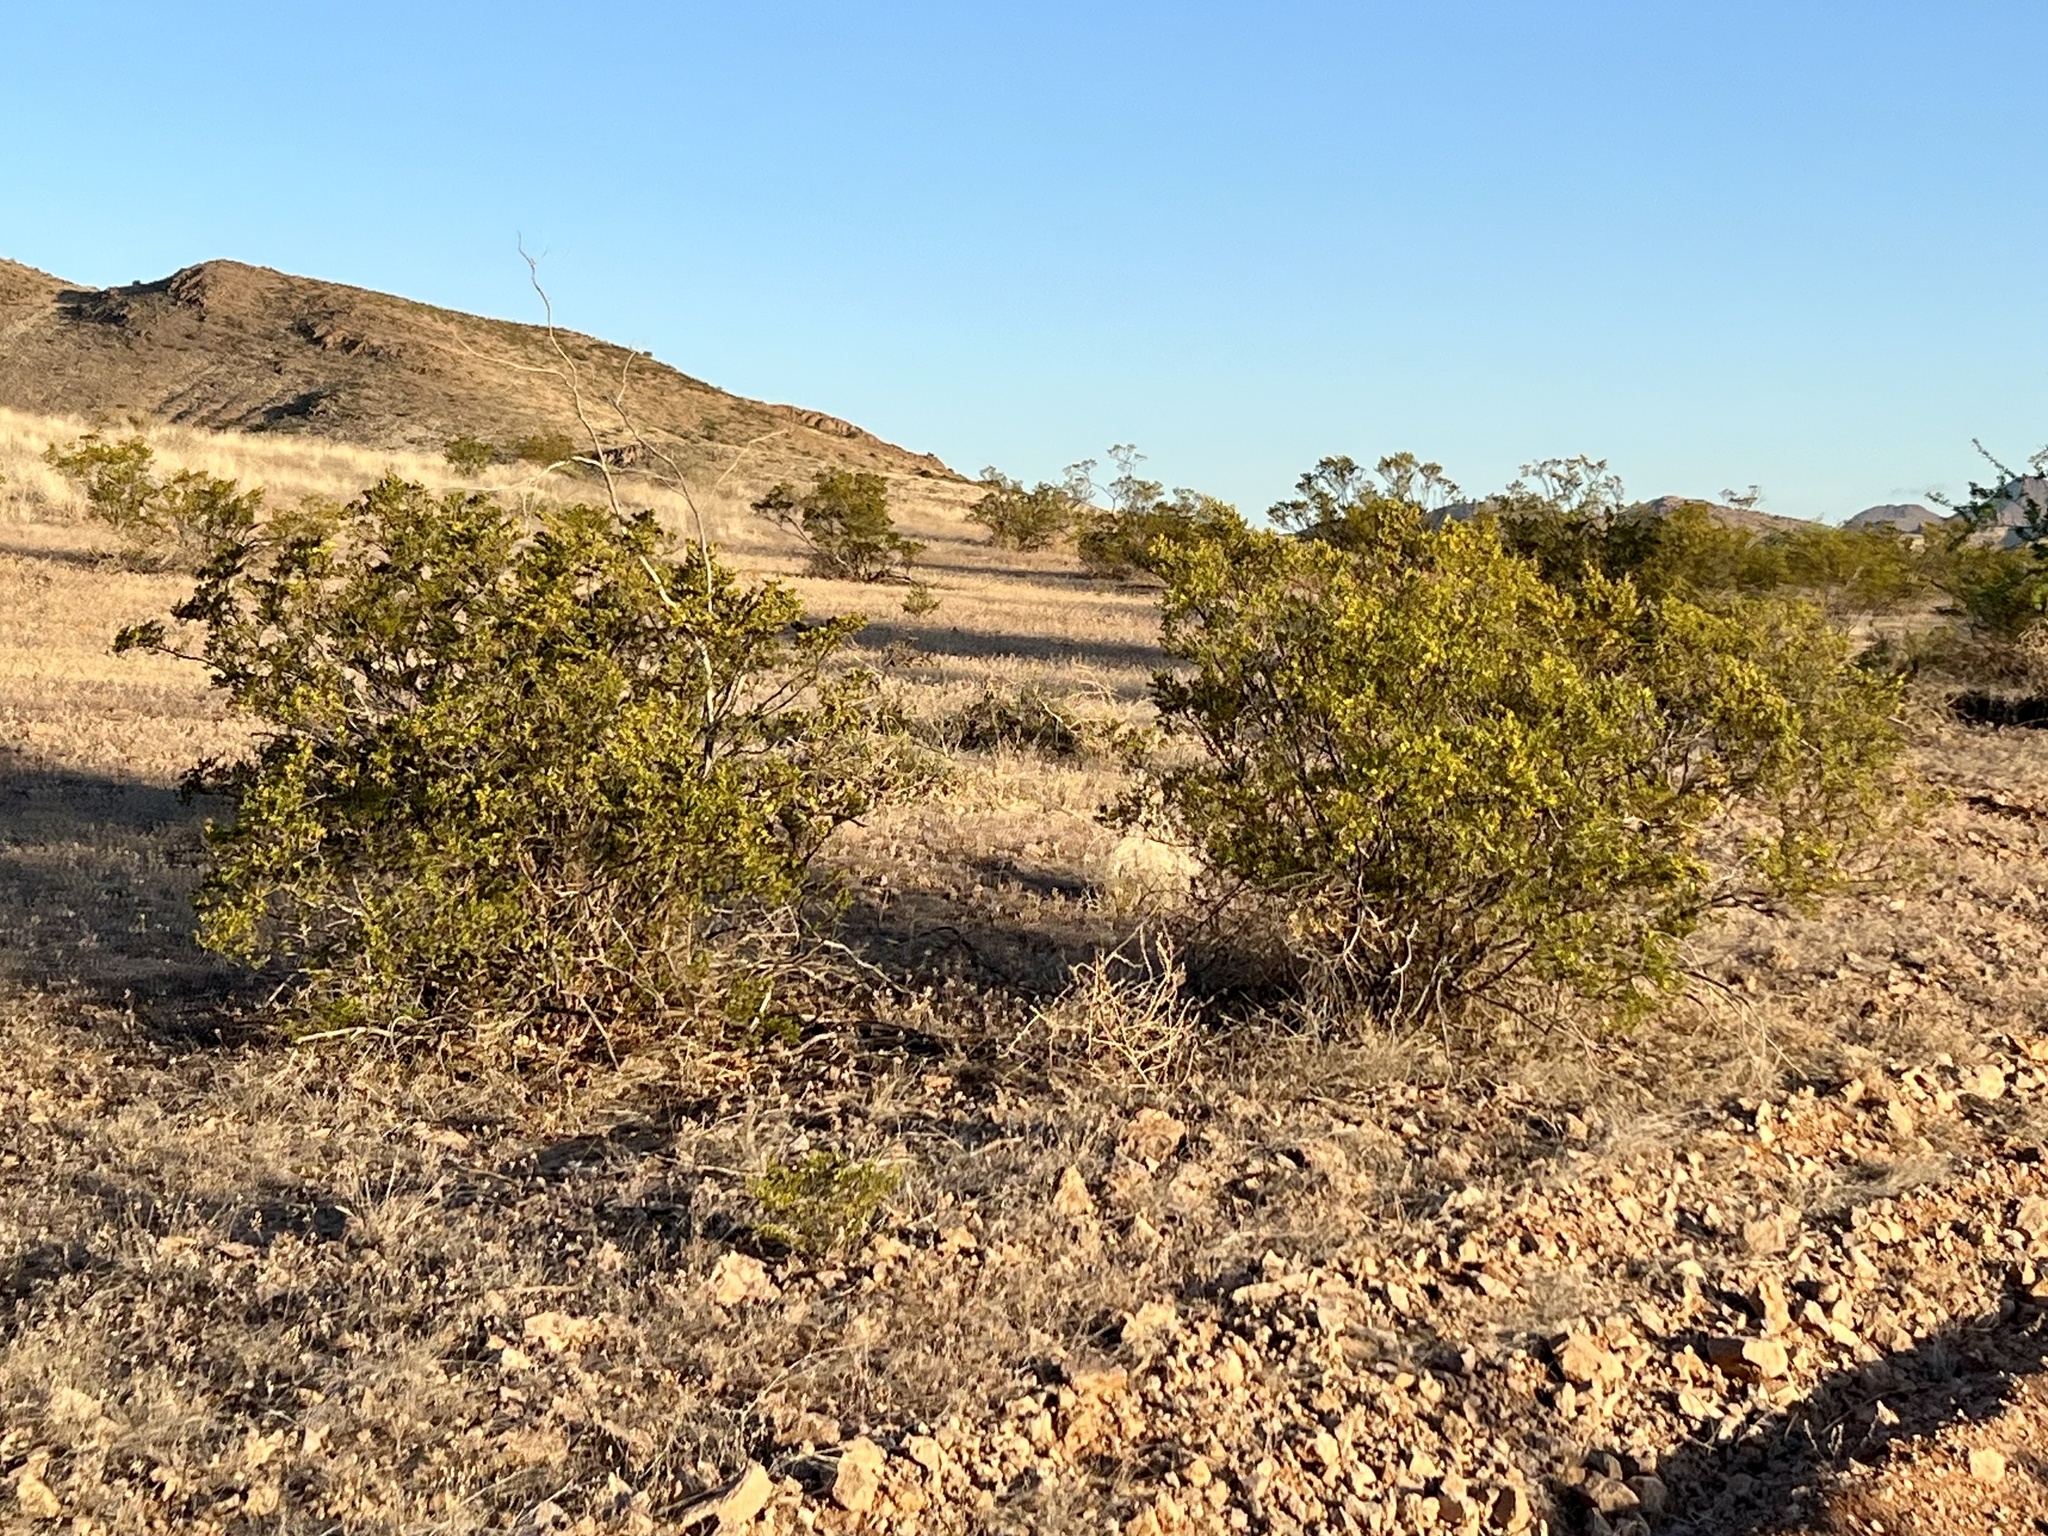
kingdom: Plantae
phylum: Tracheophyta
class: Magnoliopsida
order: Zygophyllales
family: Zygophyllaceae
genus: Larrea
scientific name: Larrea tridentata
